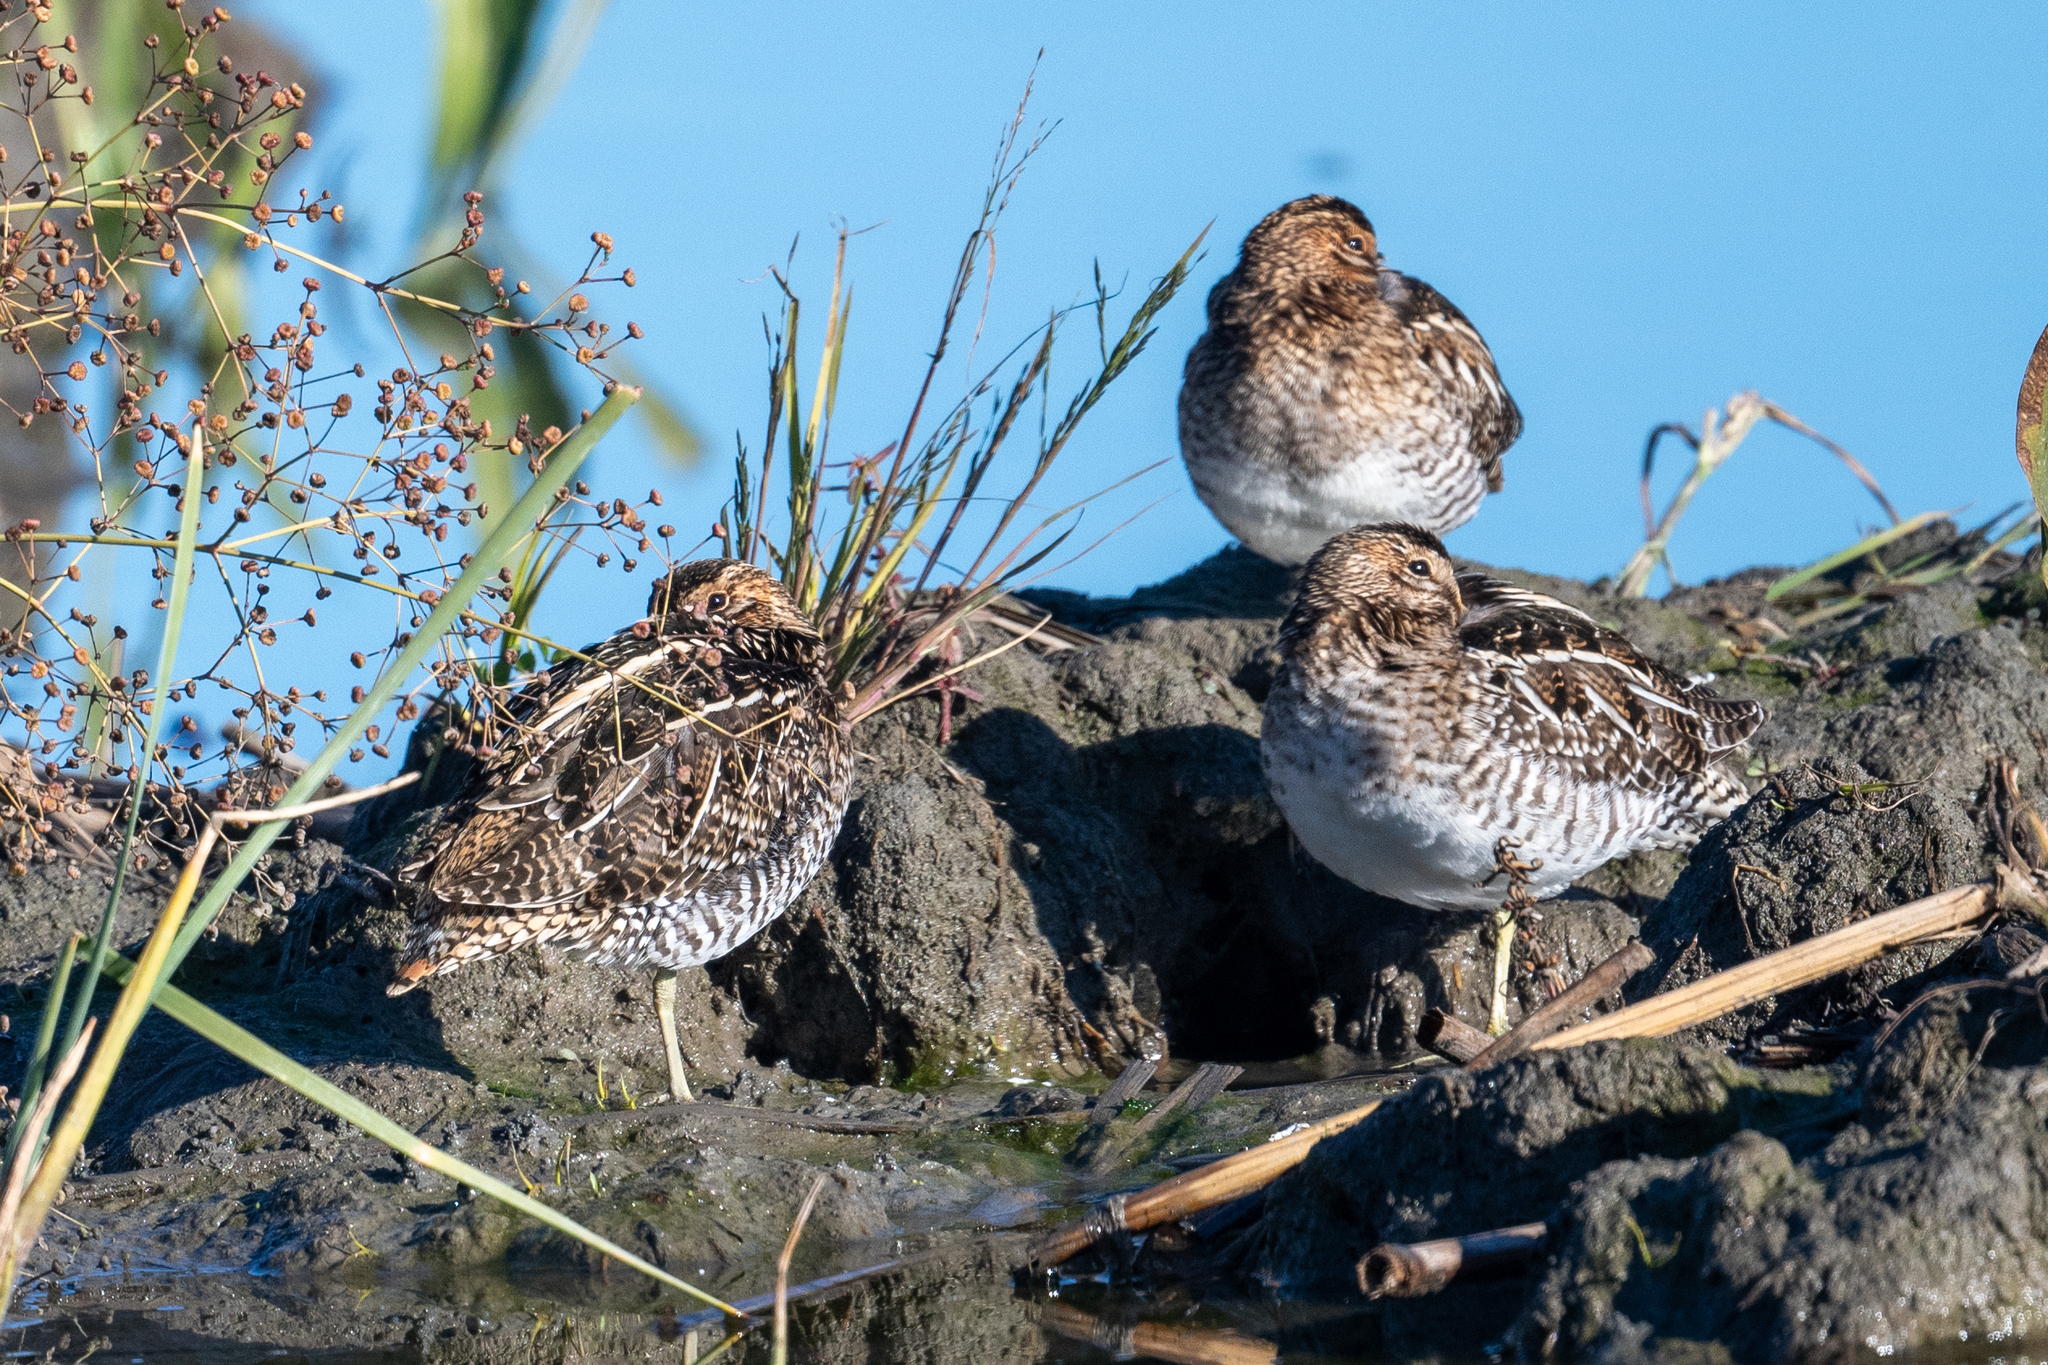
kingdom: Animalia
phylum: Chordata
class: Aves
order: Charadriiformes
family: Scolopacidae
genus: Gallinago
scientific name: Gallinago delicata
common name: Wilson's snipe
